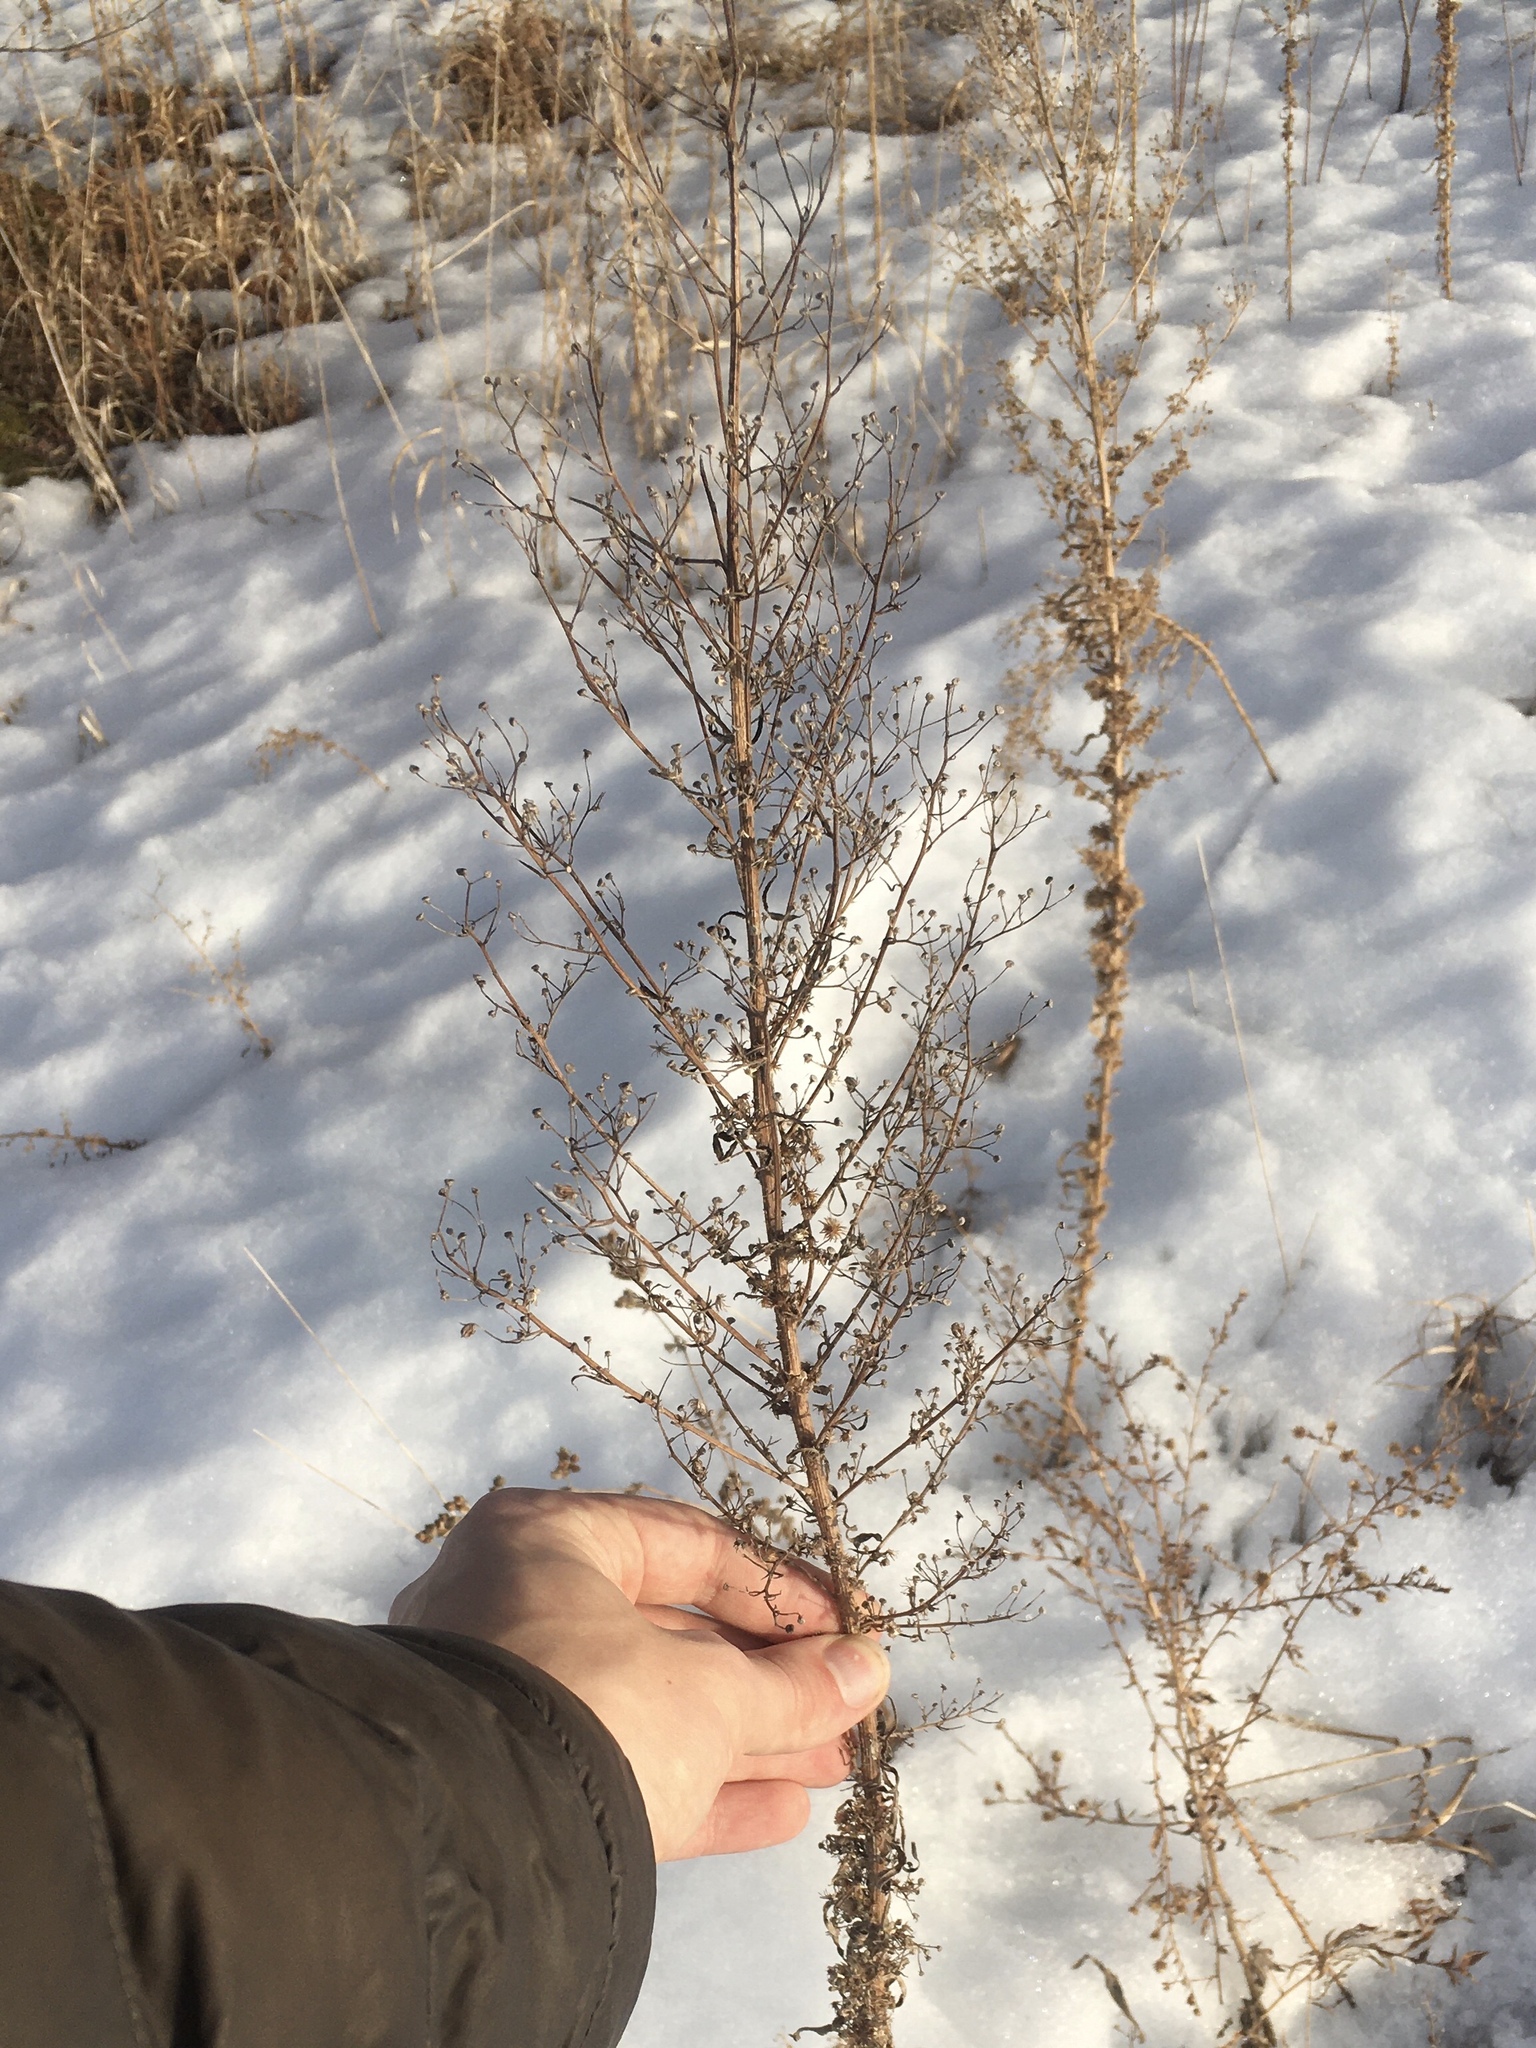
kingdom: Plantae
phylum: Tracheophyta
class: Magnoliopsida
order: Asterales
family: Asteraceae
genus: Erigeron
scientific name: Erigeron canadensis
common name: Canadian fleabane
